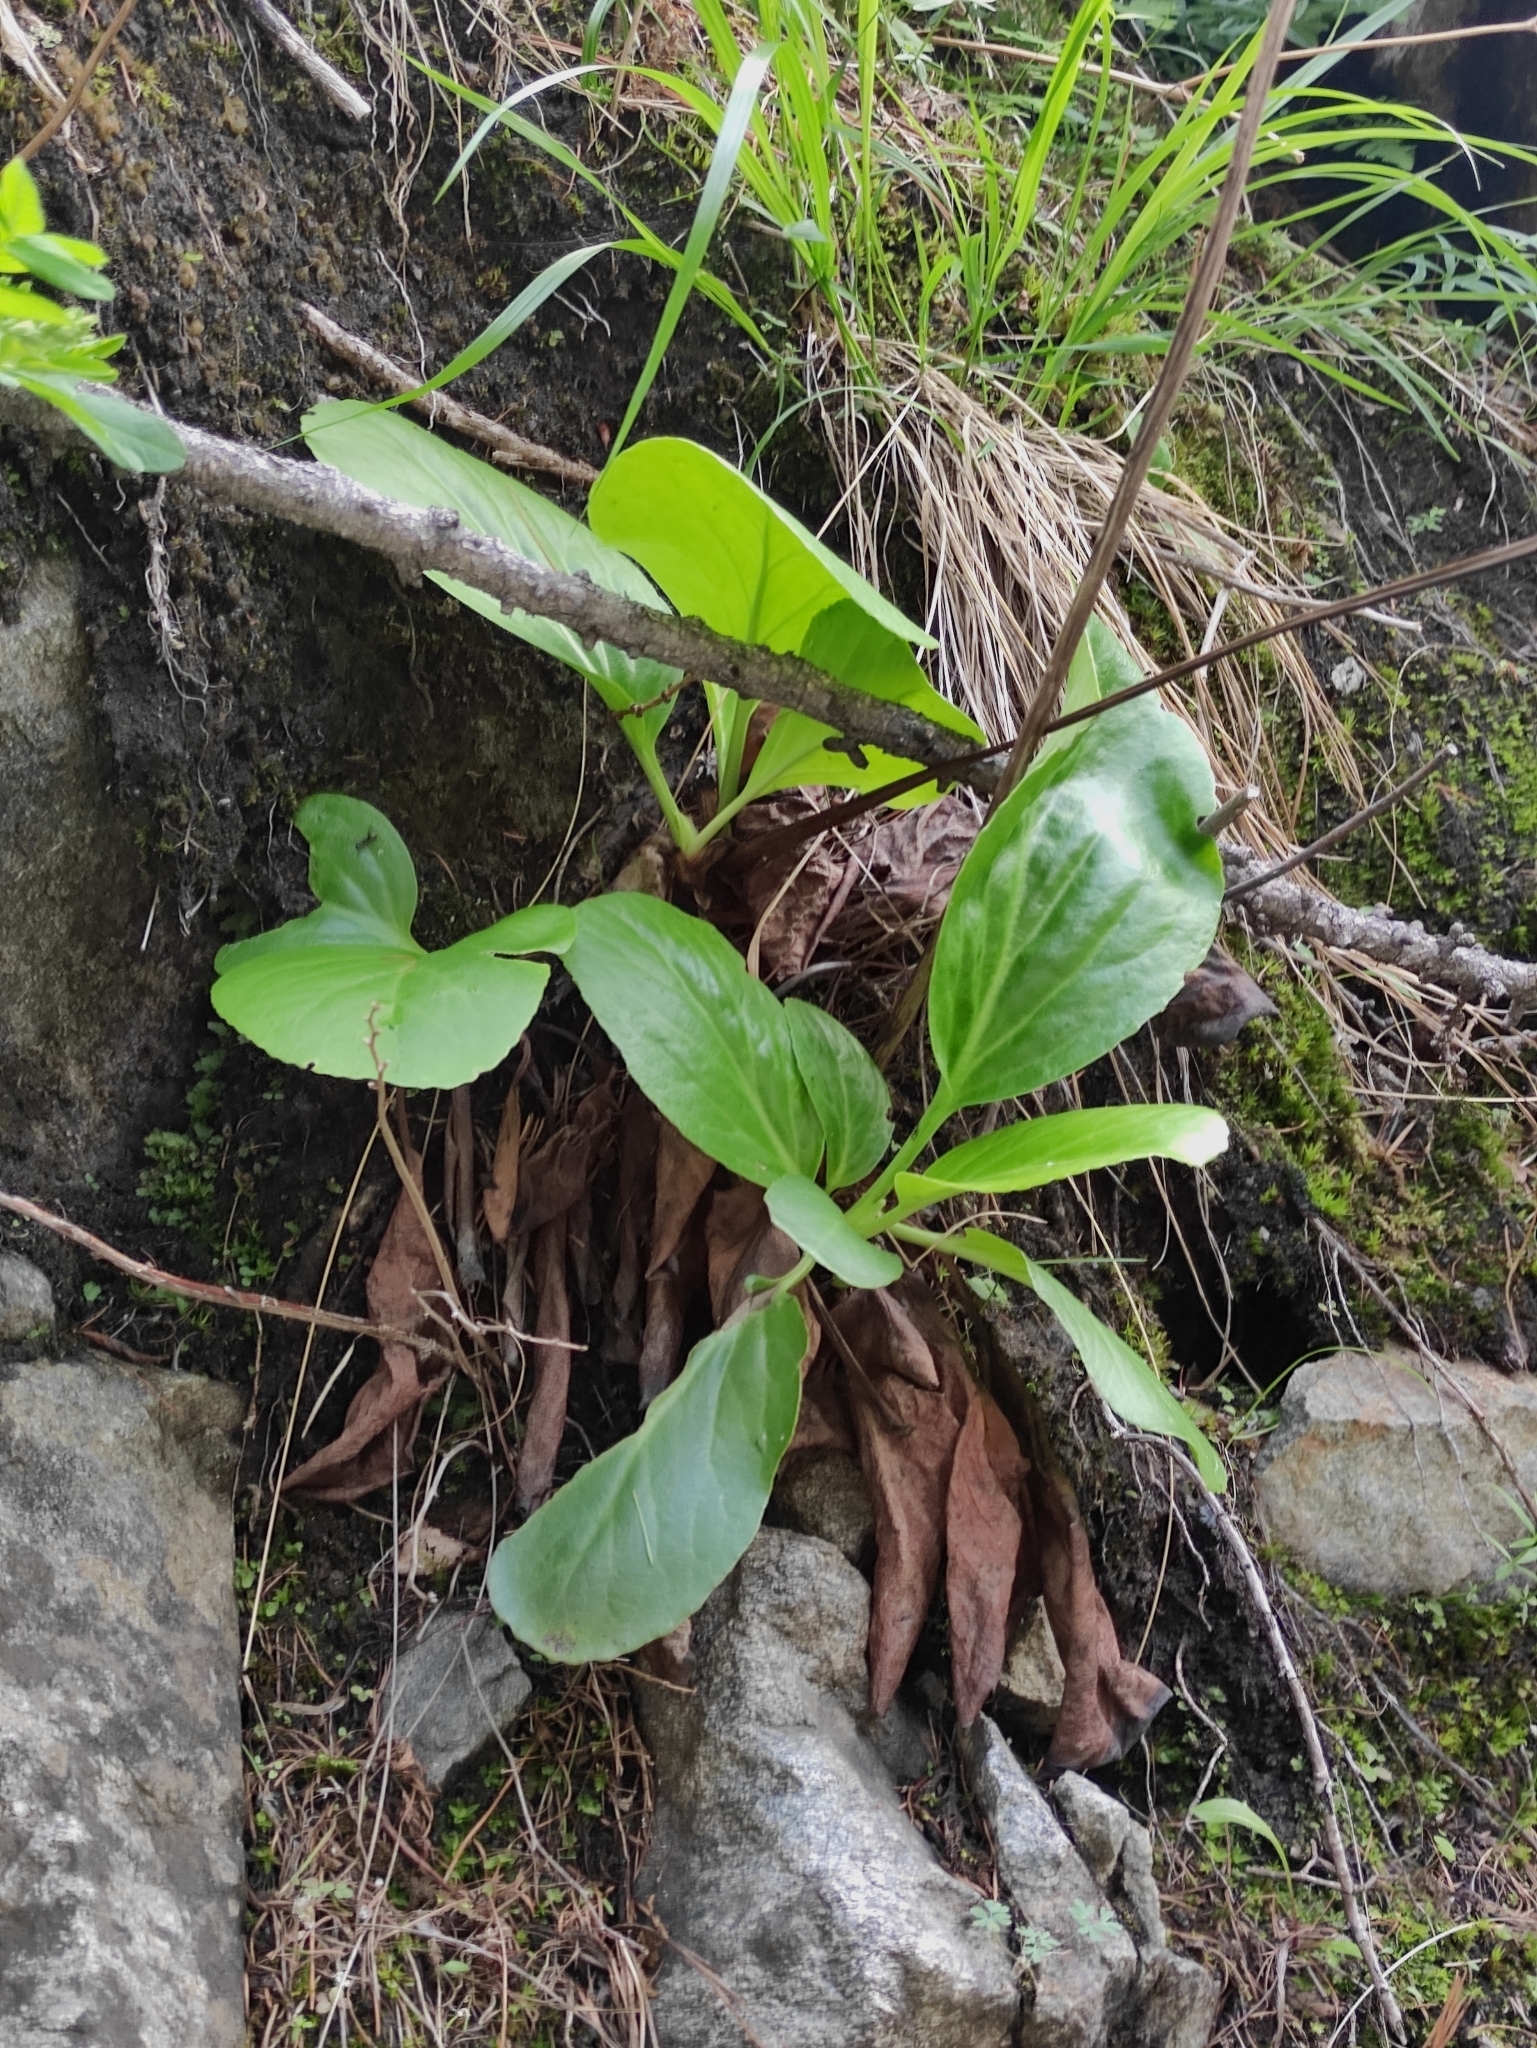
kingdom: Plantae
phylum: Tracheophyta
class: Magnoliopsida
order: Saxifragales
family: Saxifragaceae
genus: Bergenia
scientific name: Bergenia crassifolia
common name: Elephant-ears
